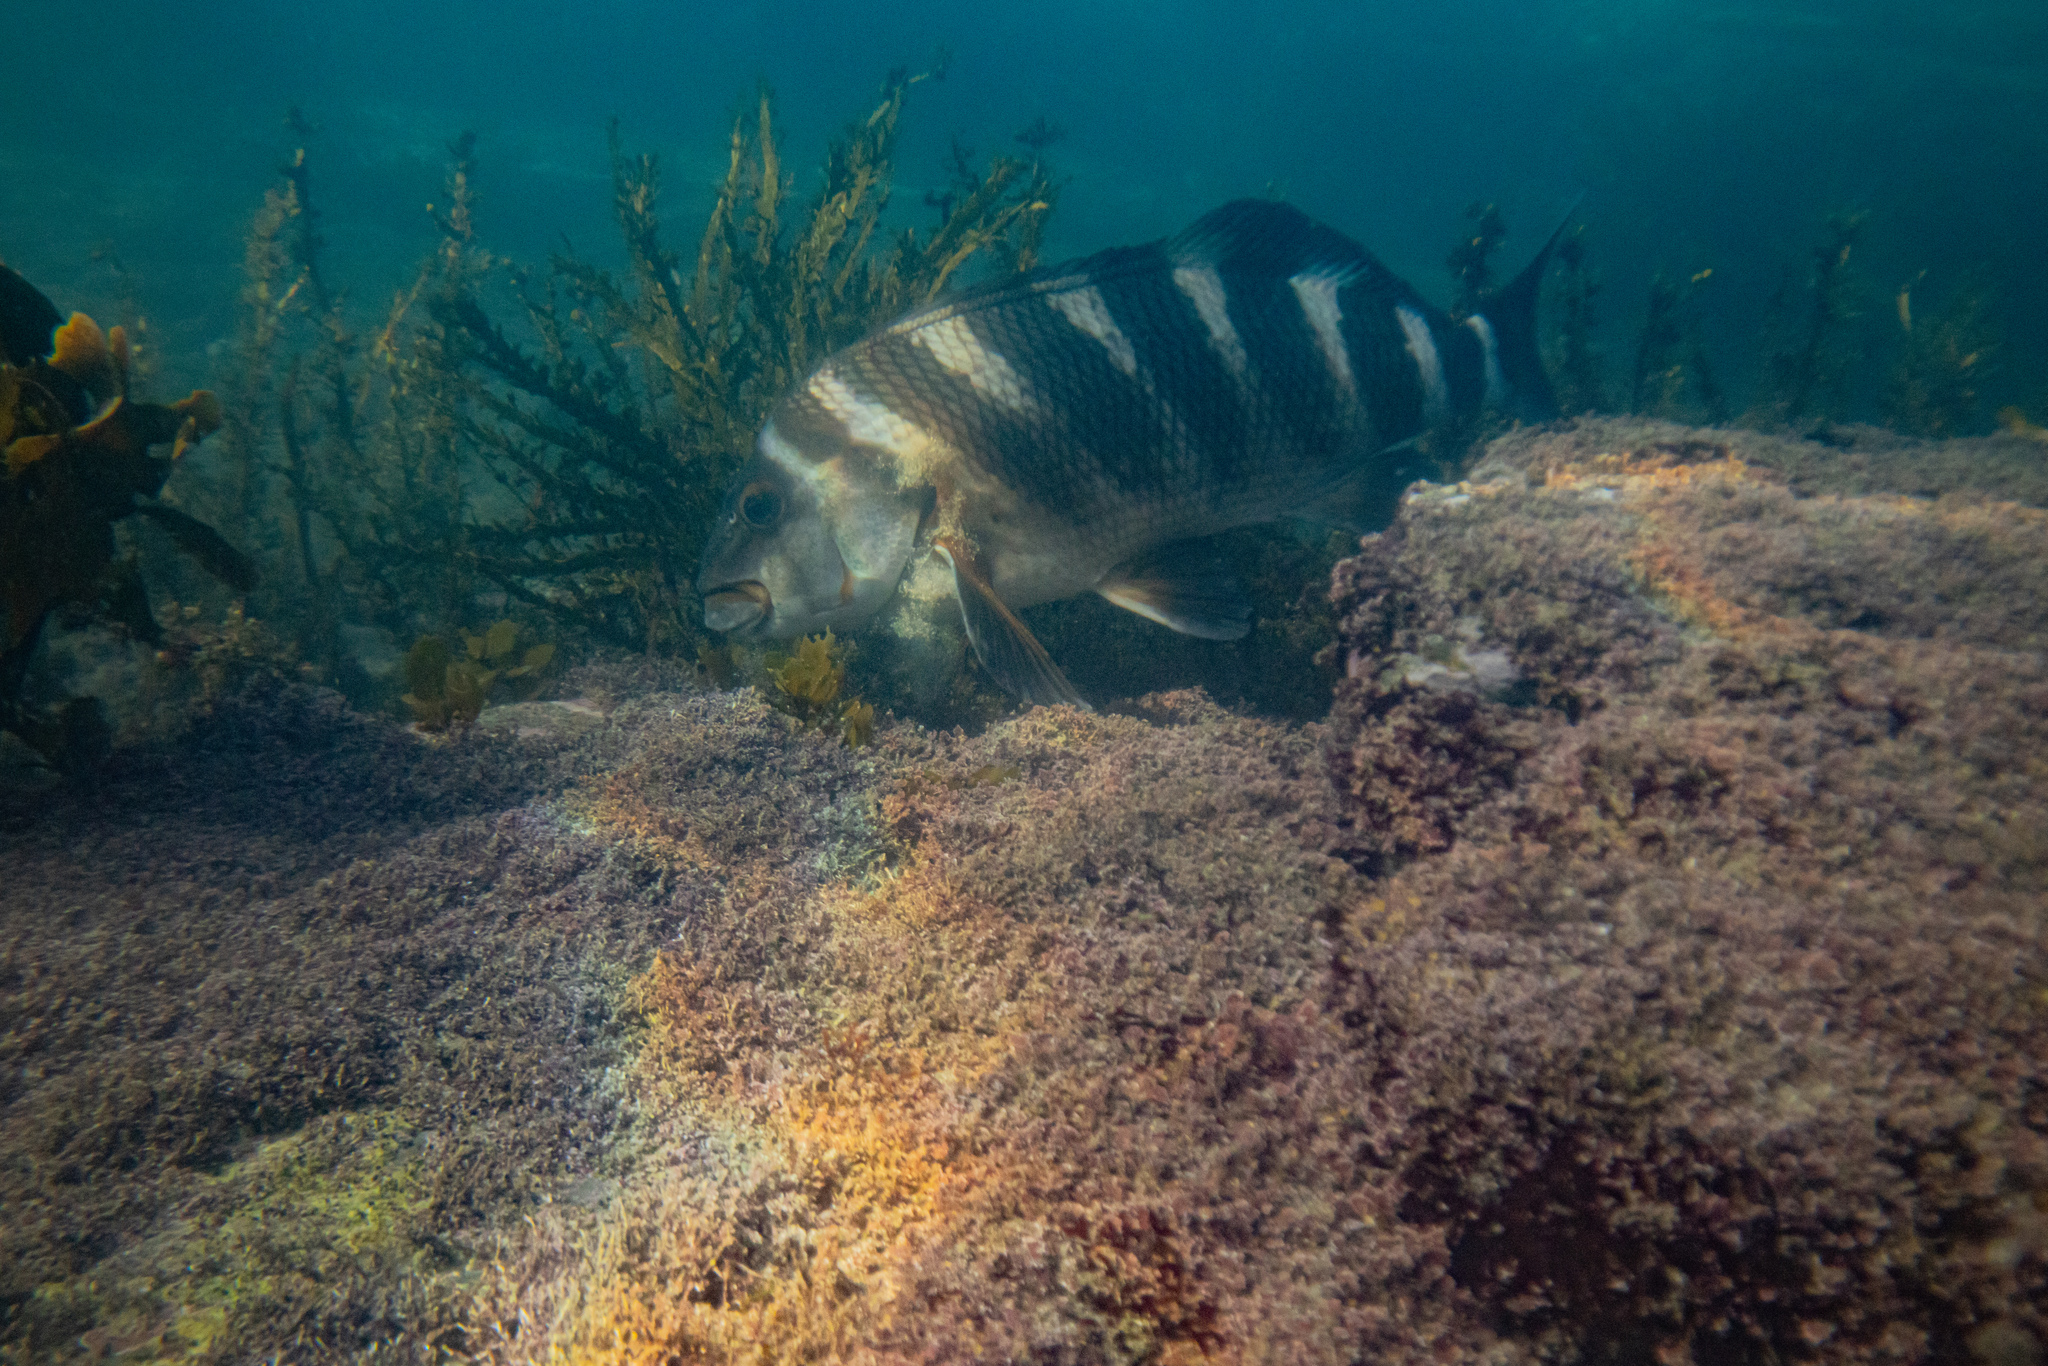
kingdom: Animalia
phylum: Chordata
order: Perciformes
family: Cheilodactylidae
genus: Cheilodactylus
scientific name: Cheilodactylus spectabilis
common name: Red moki
